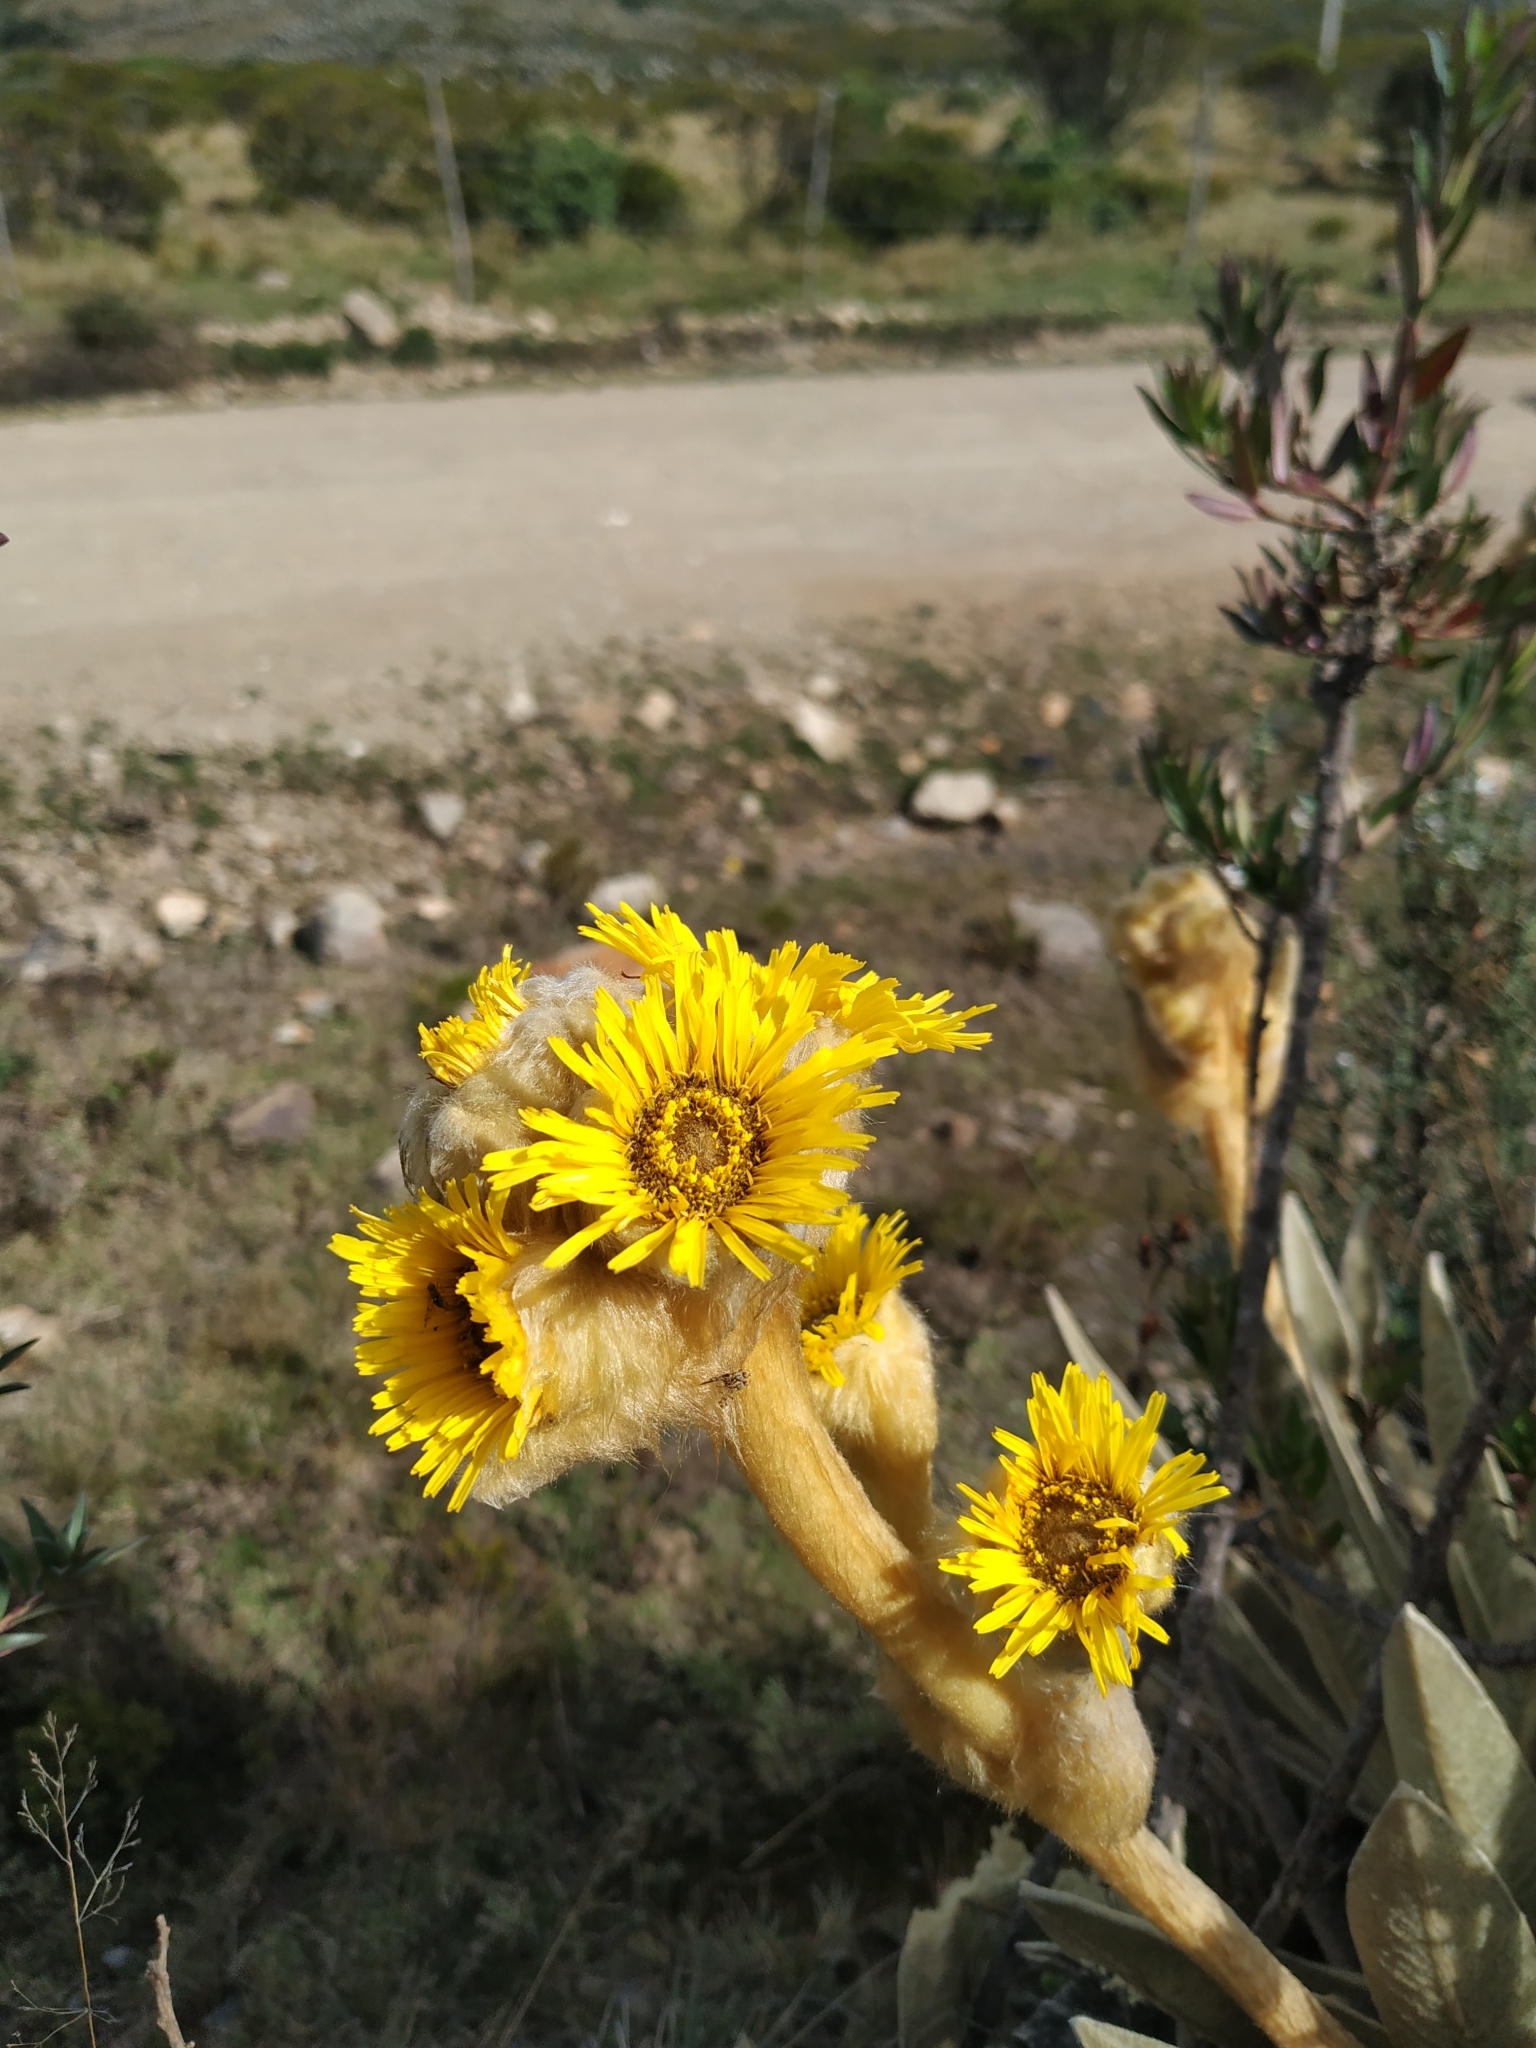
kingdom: Plantae
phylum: Tracheophyta
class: Magnoliopsida
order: Asterales
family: Asteraceae
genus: Espeletia
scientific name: Espeletia congestiflora
